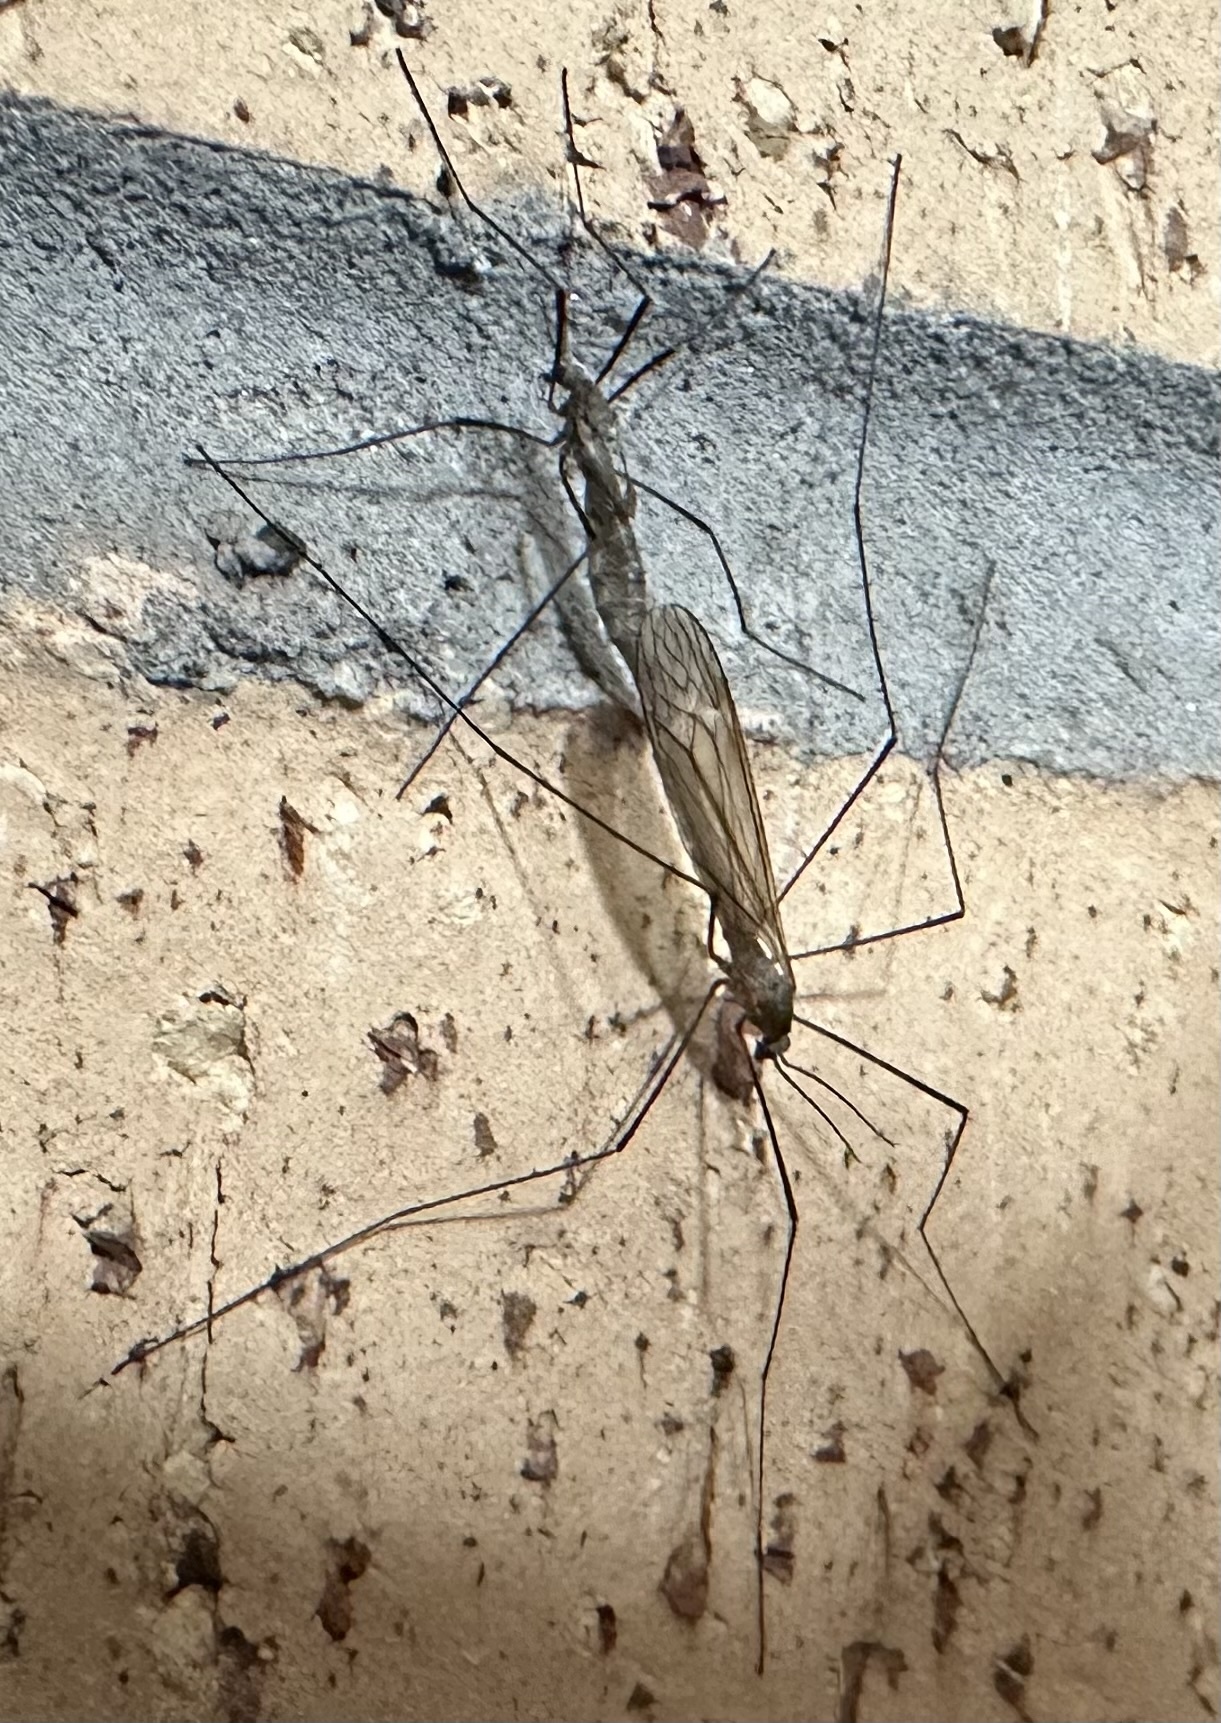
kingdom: Animalia
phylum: Arthropoda
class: Insecta
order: Diptera
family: Tipulidae
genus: Tipula
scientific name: Tipula pagana
